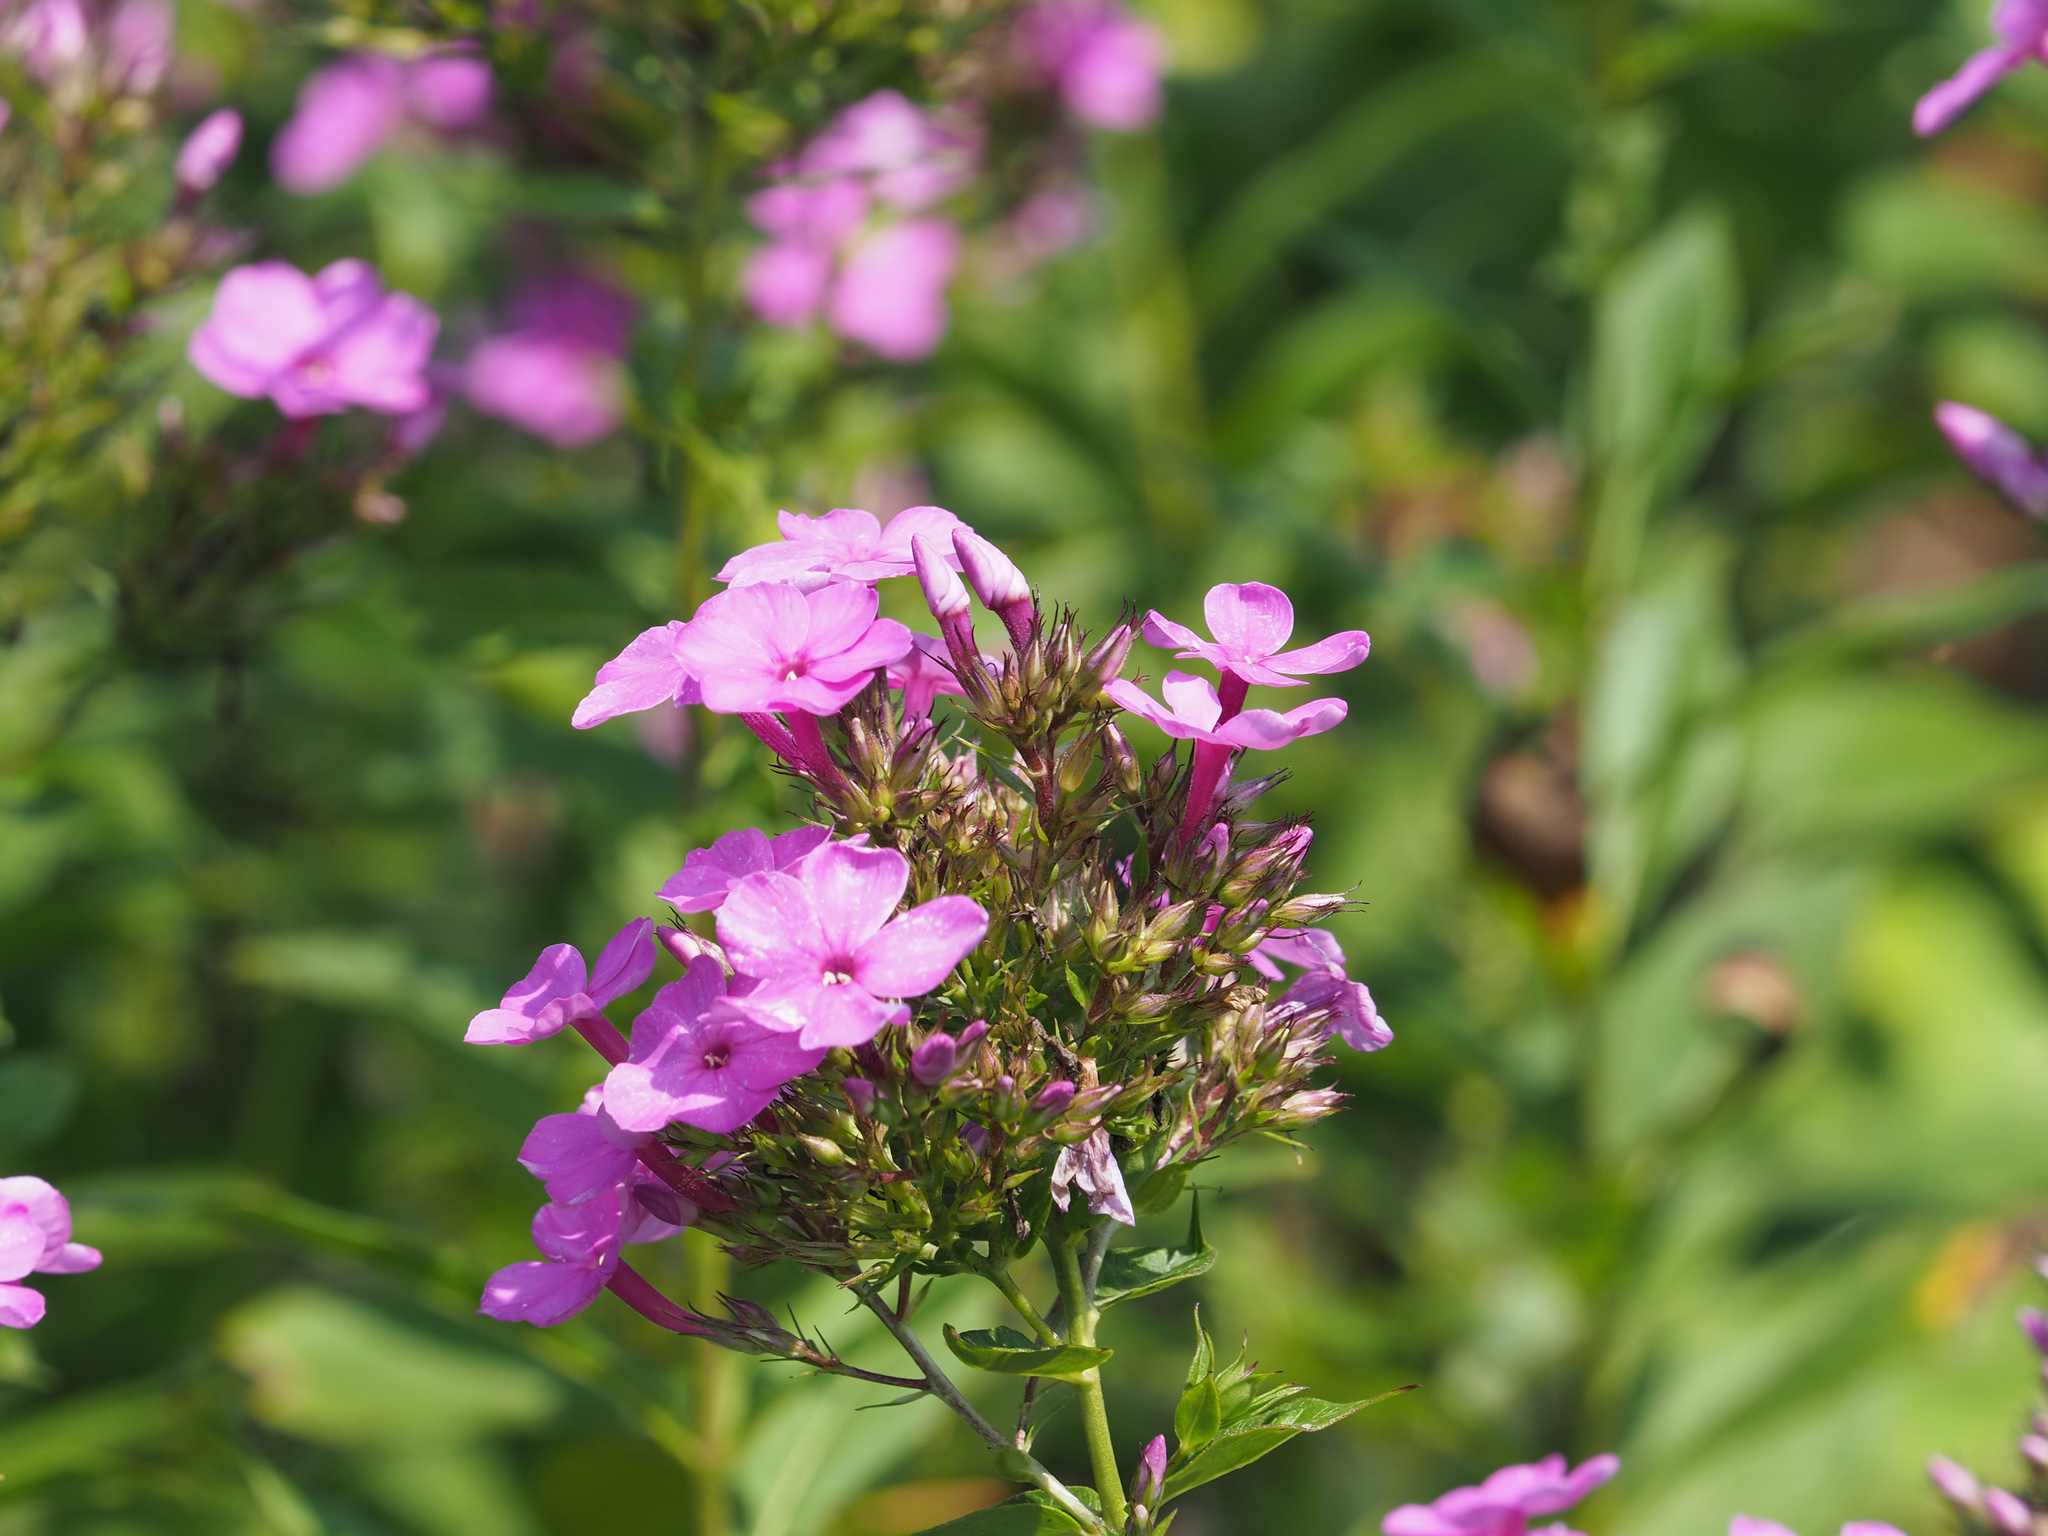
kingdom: Plantae
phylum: Tracheophyta
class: Magnoliopsida
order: Ericales
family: Polemoniaceae
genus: Phlox
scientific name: Phlox paniculata
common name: Fall phlox
